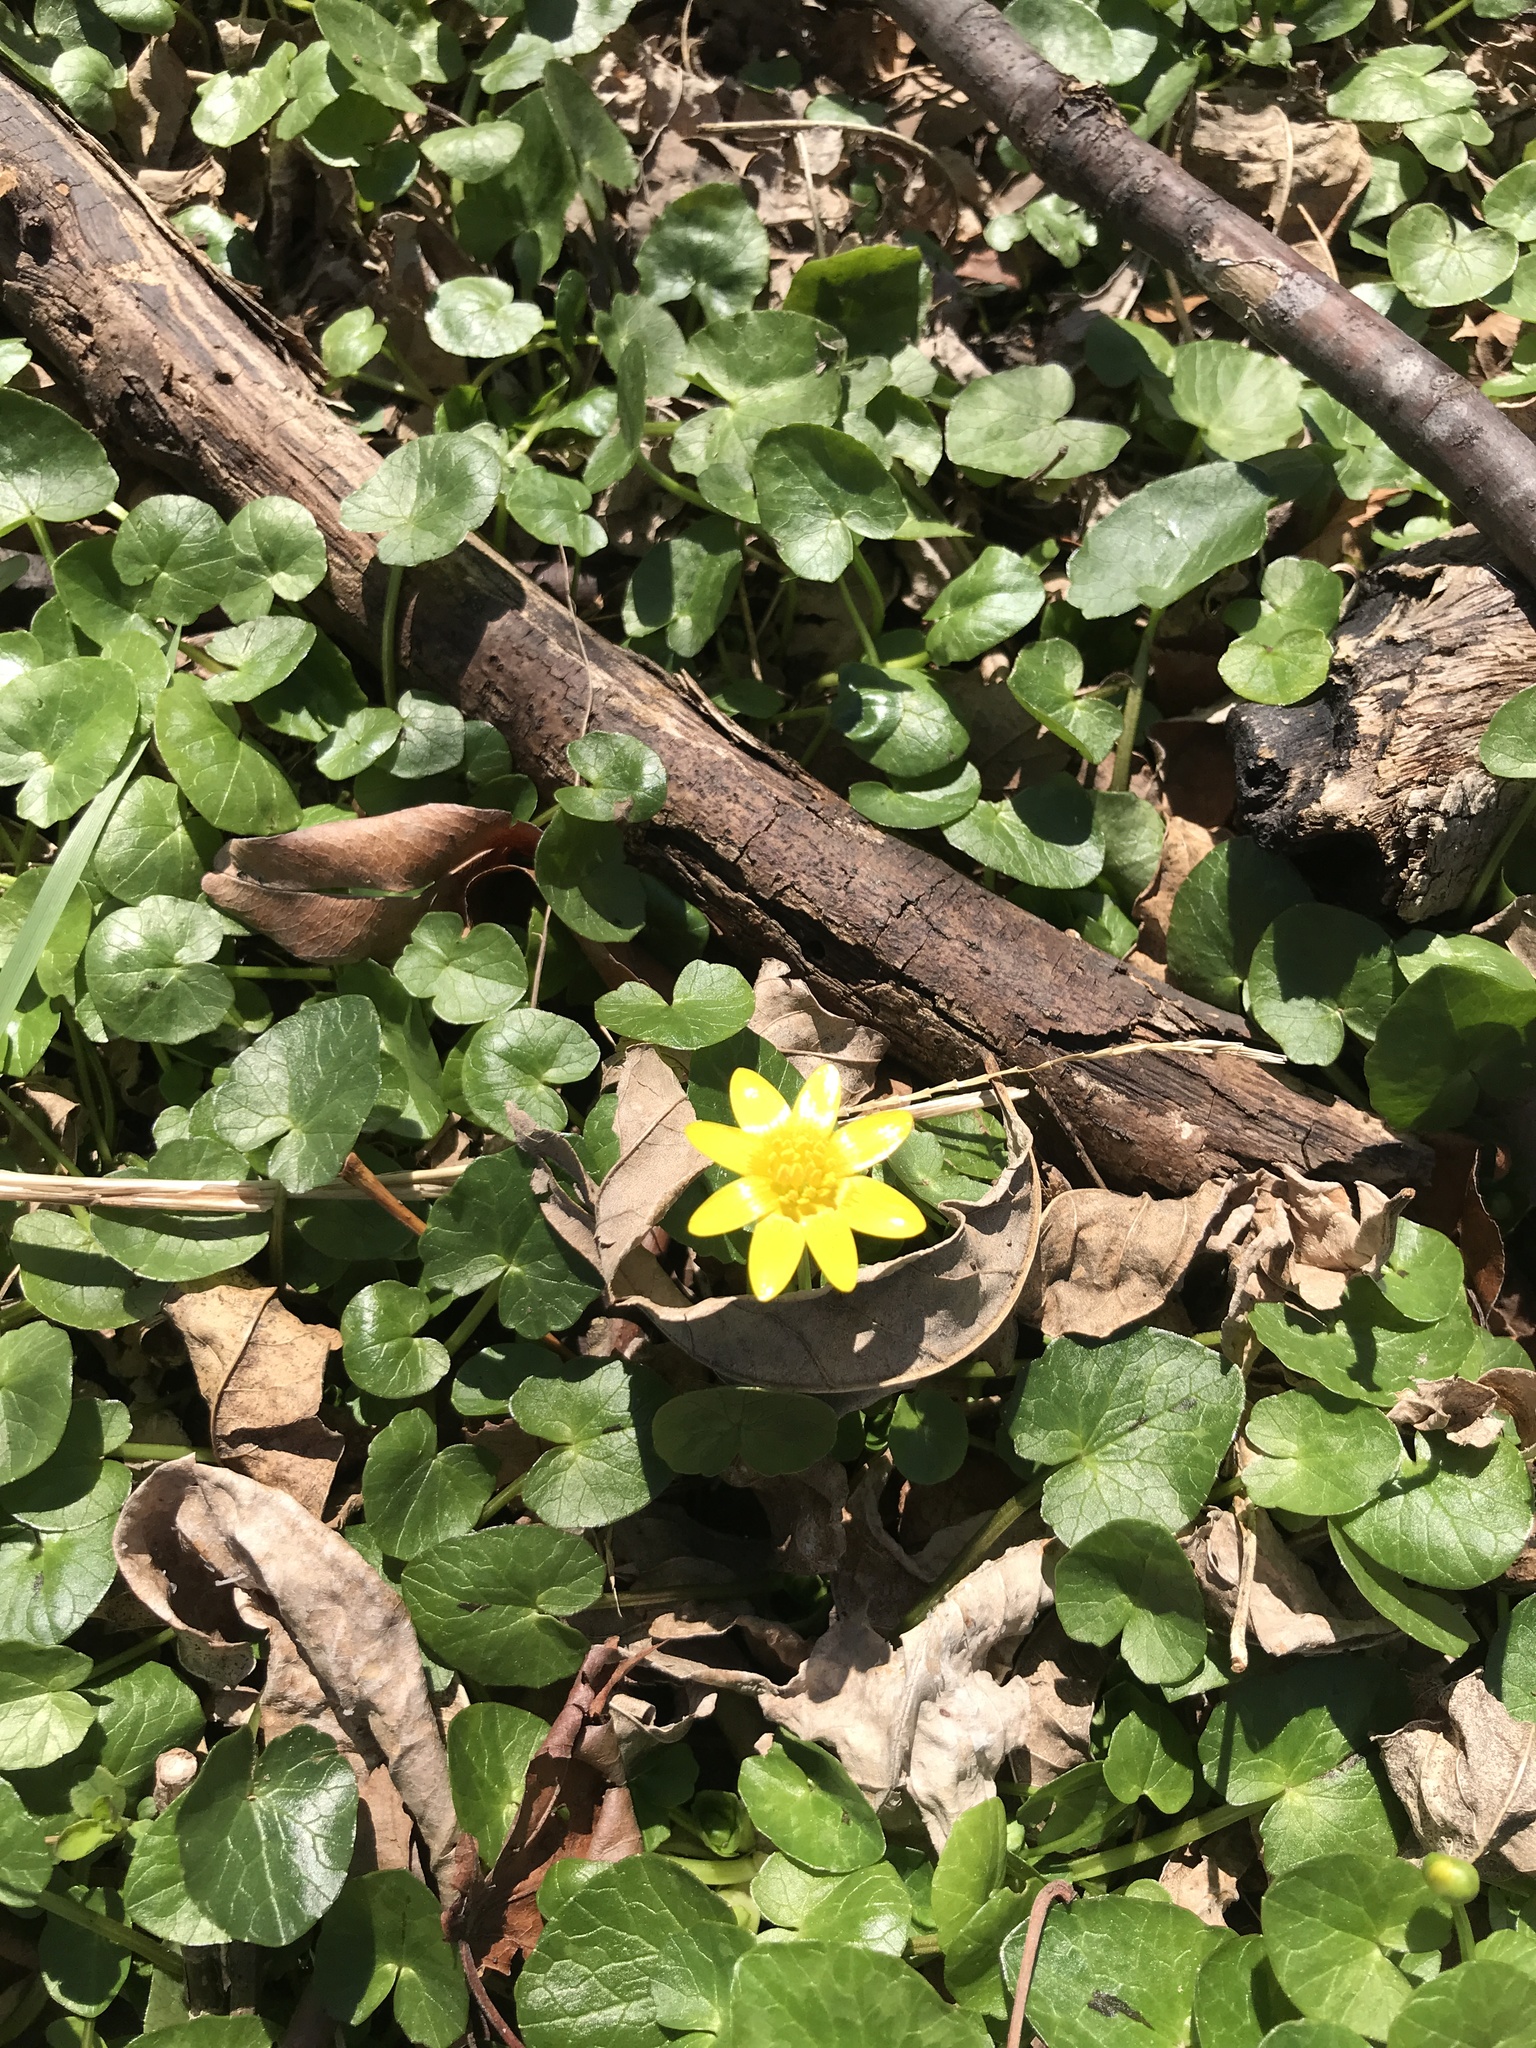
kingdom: Plantae
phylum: Tracheophyta
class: Magnoliopsida
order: Ranunculales
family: Ranunculaceae
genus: Ficaria
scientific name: Ficaria verna
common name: Lesser celandine
